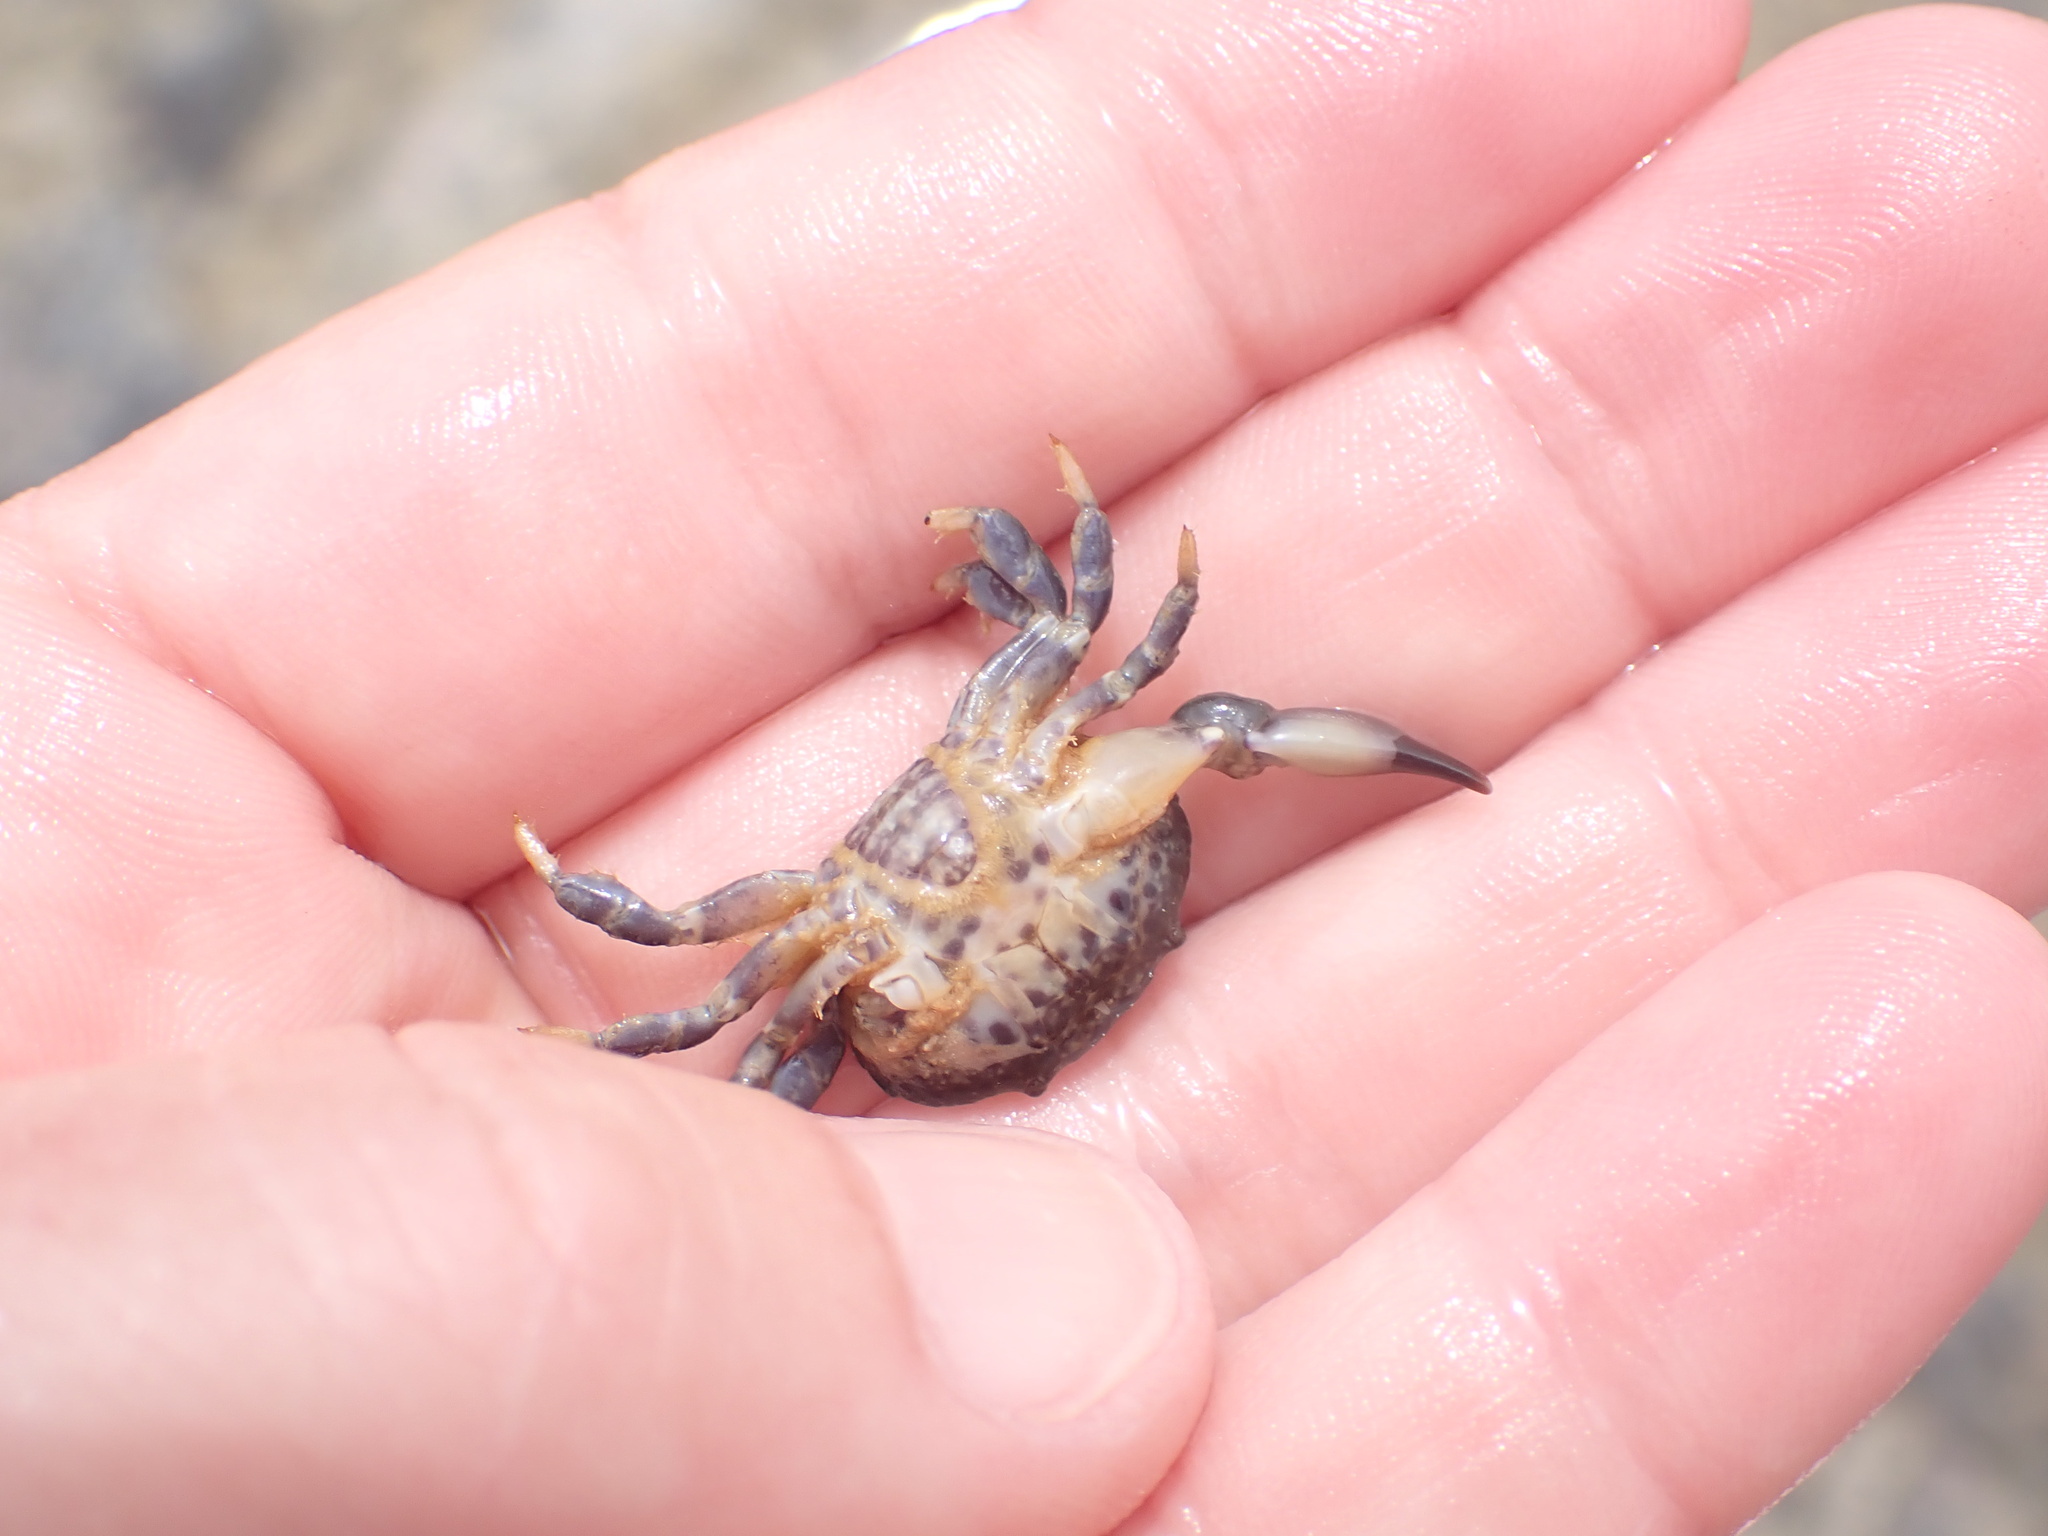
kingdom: Animalia
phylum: Arthropoda
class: Malacostraca
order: Decapoda
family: Xanthidae
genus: Xantho
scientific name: Xantho poressa
